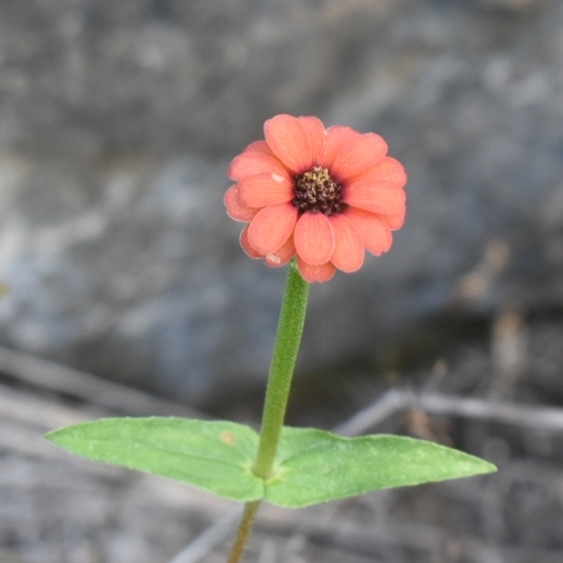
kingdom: Plantae
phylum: Tracheophyta
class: Magnoliopsida
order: Asterales
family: Asteraceae
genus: Zinnia
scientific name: Zinnia peruviana
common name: Peruvian zinnia
